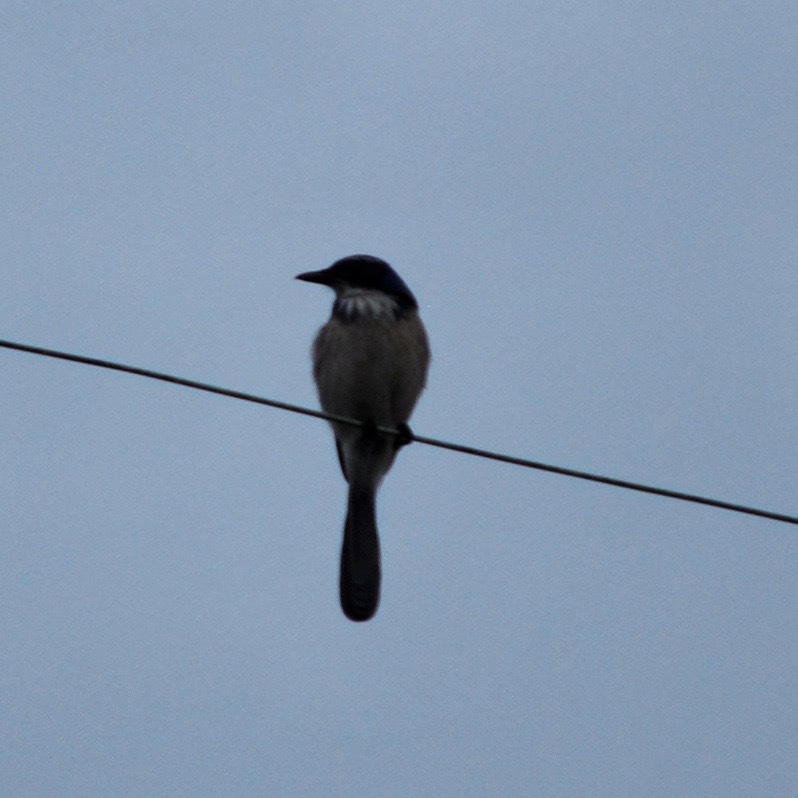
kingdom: Animalia
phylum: Chordata
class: Aves
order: Passeriformes
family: Corvidae
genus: Aphelocoma
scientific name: Aphelocoma californica
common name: California scrub-jay
